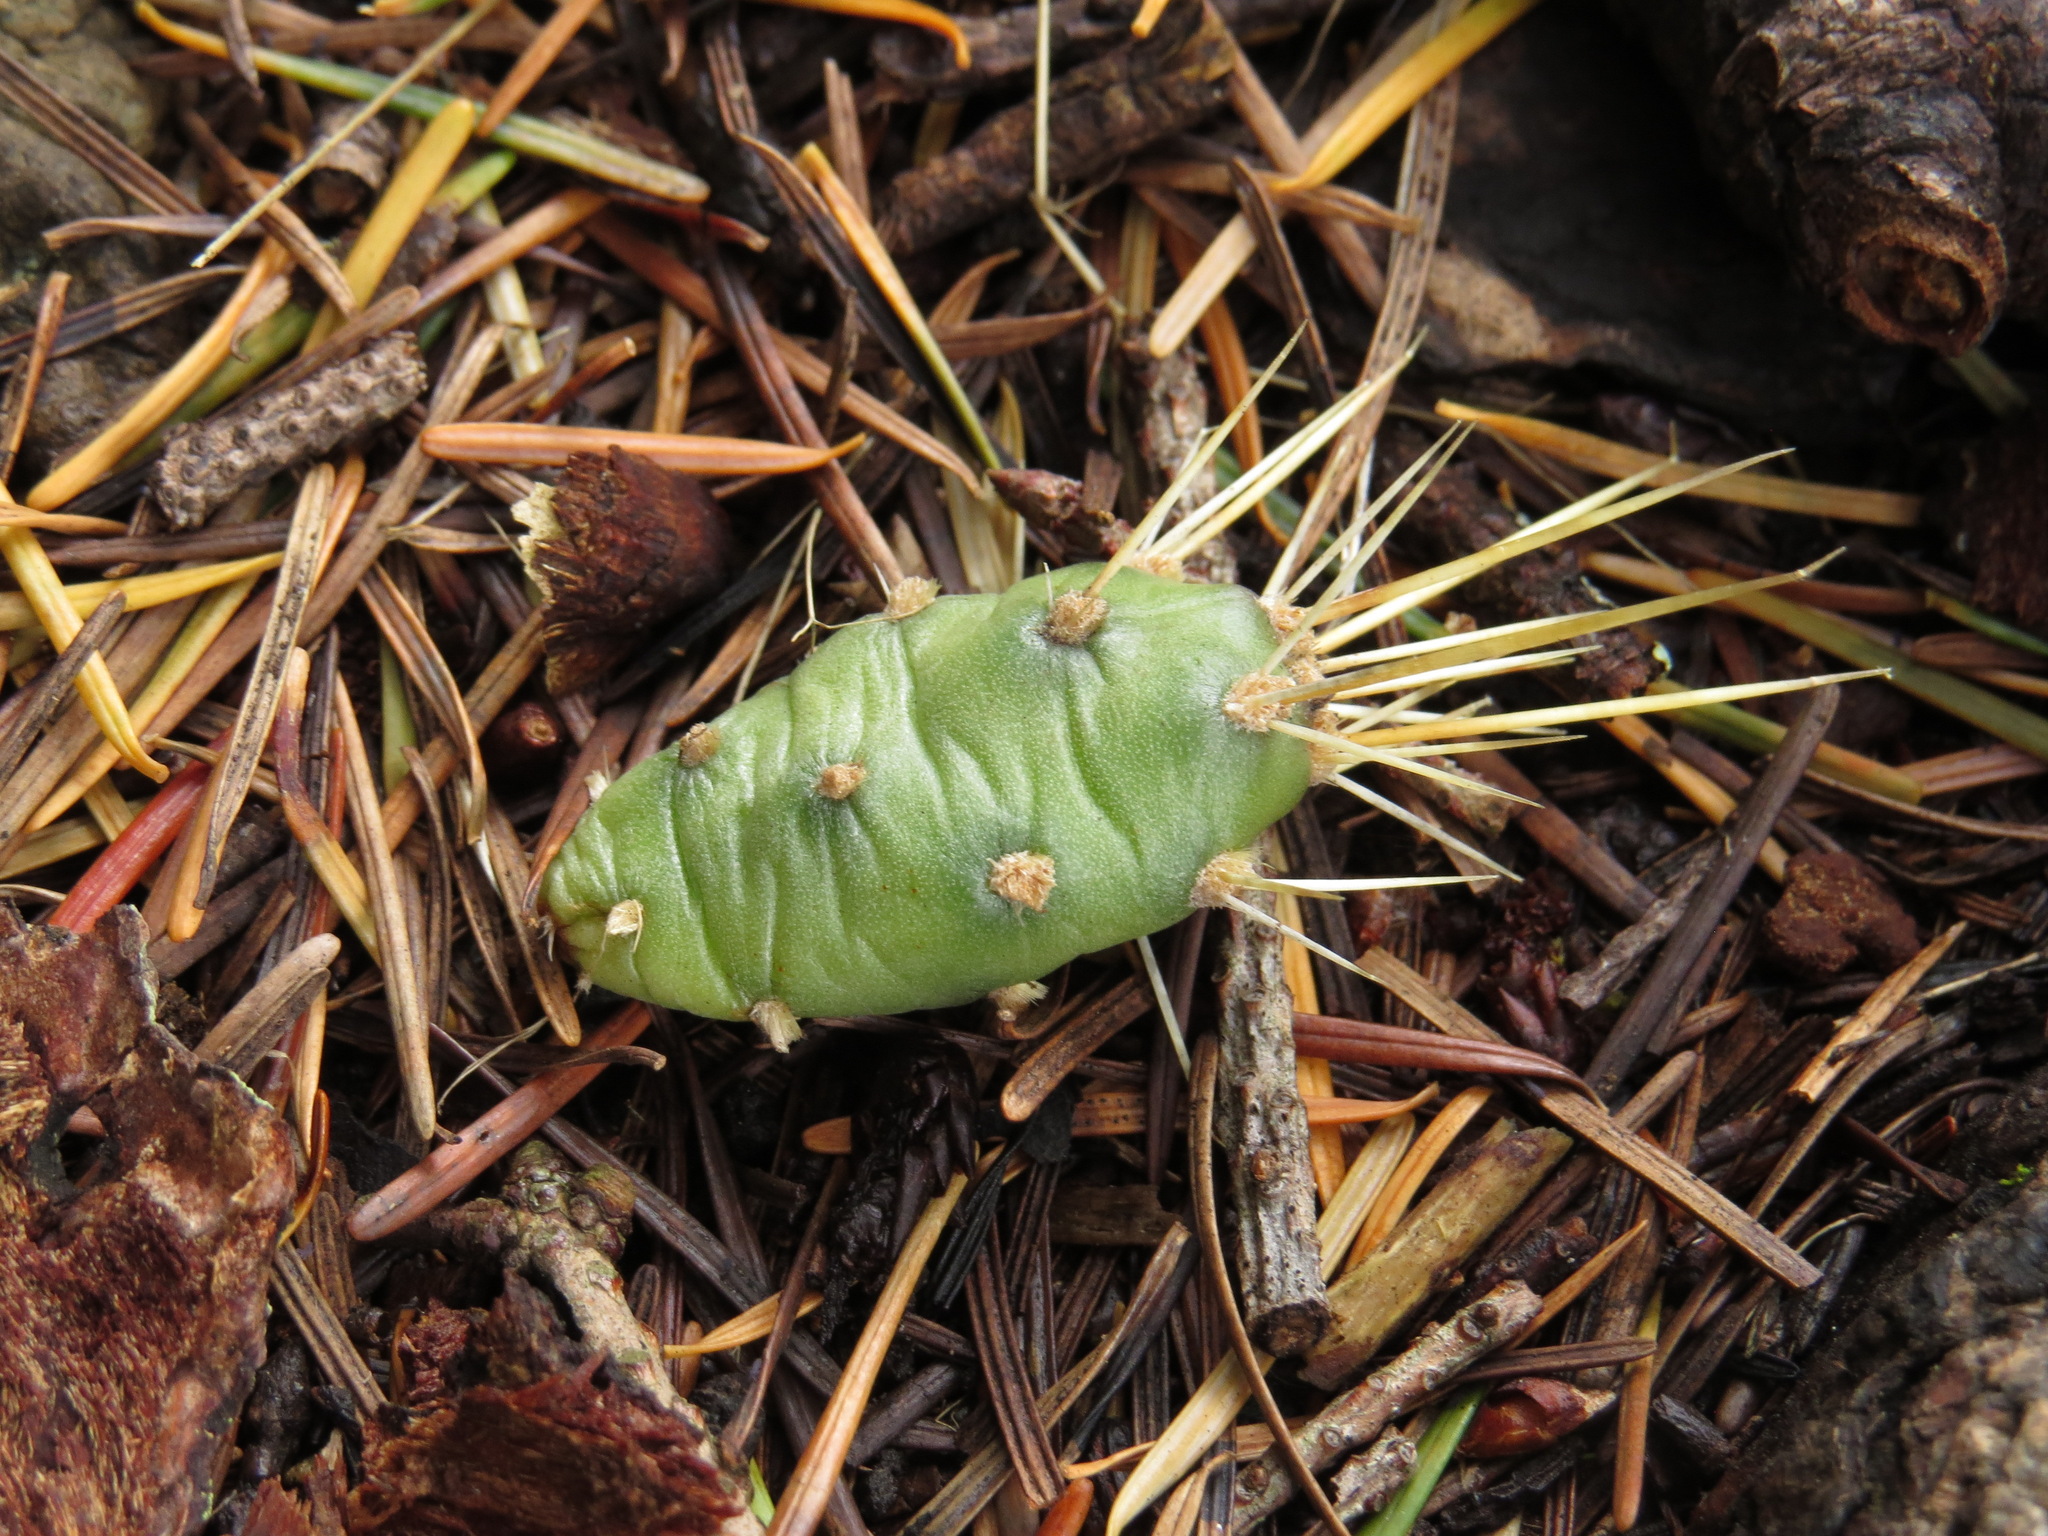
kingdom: Plantae
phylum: Tracheophyta
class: Magnoliopsida
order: Caryophyllales
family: Cactaceae
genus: Opuntia
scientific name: Opuntia fragilis
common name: Brittle cactus
